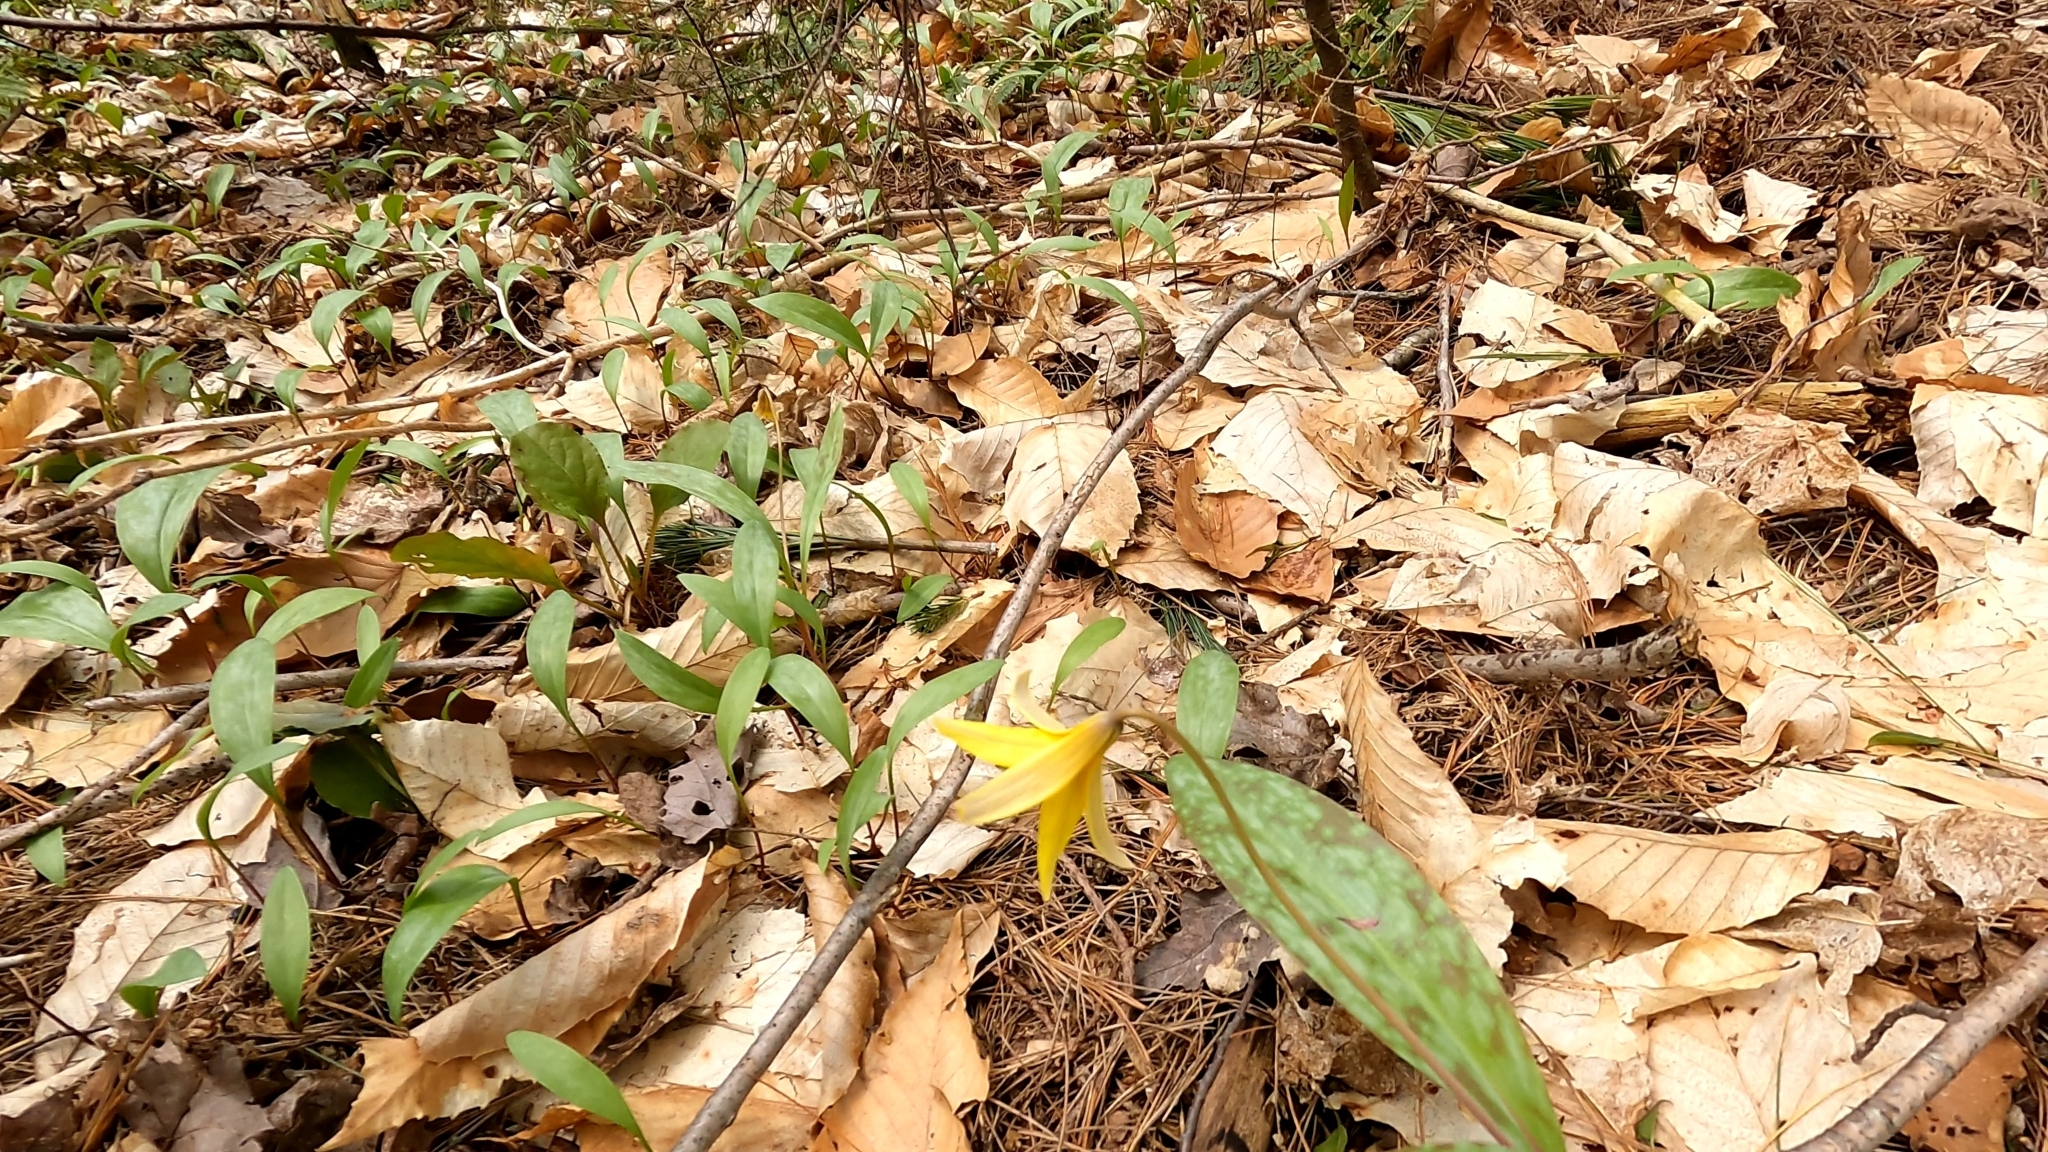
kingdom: Plantae
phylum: Tracheophyta
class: Liliopsida
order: Liliales
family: Liliaceae
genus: Erythronium
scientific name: Erythronium americanum
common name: Yellow adder's-tongue
